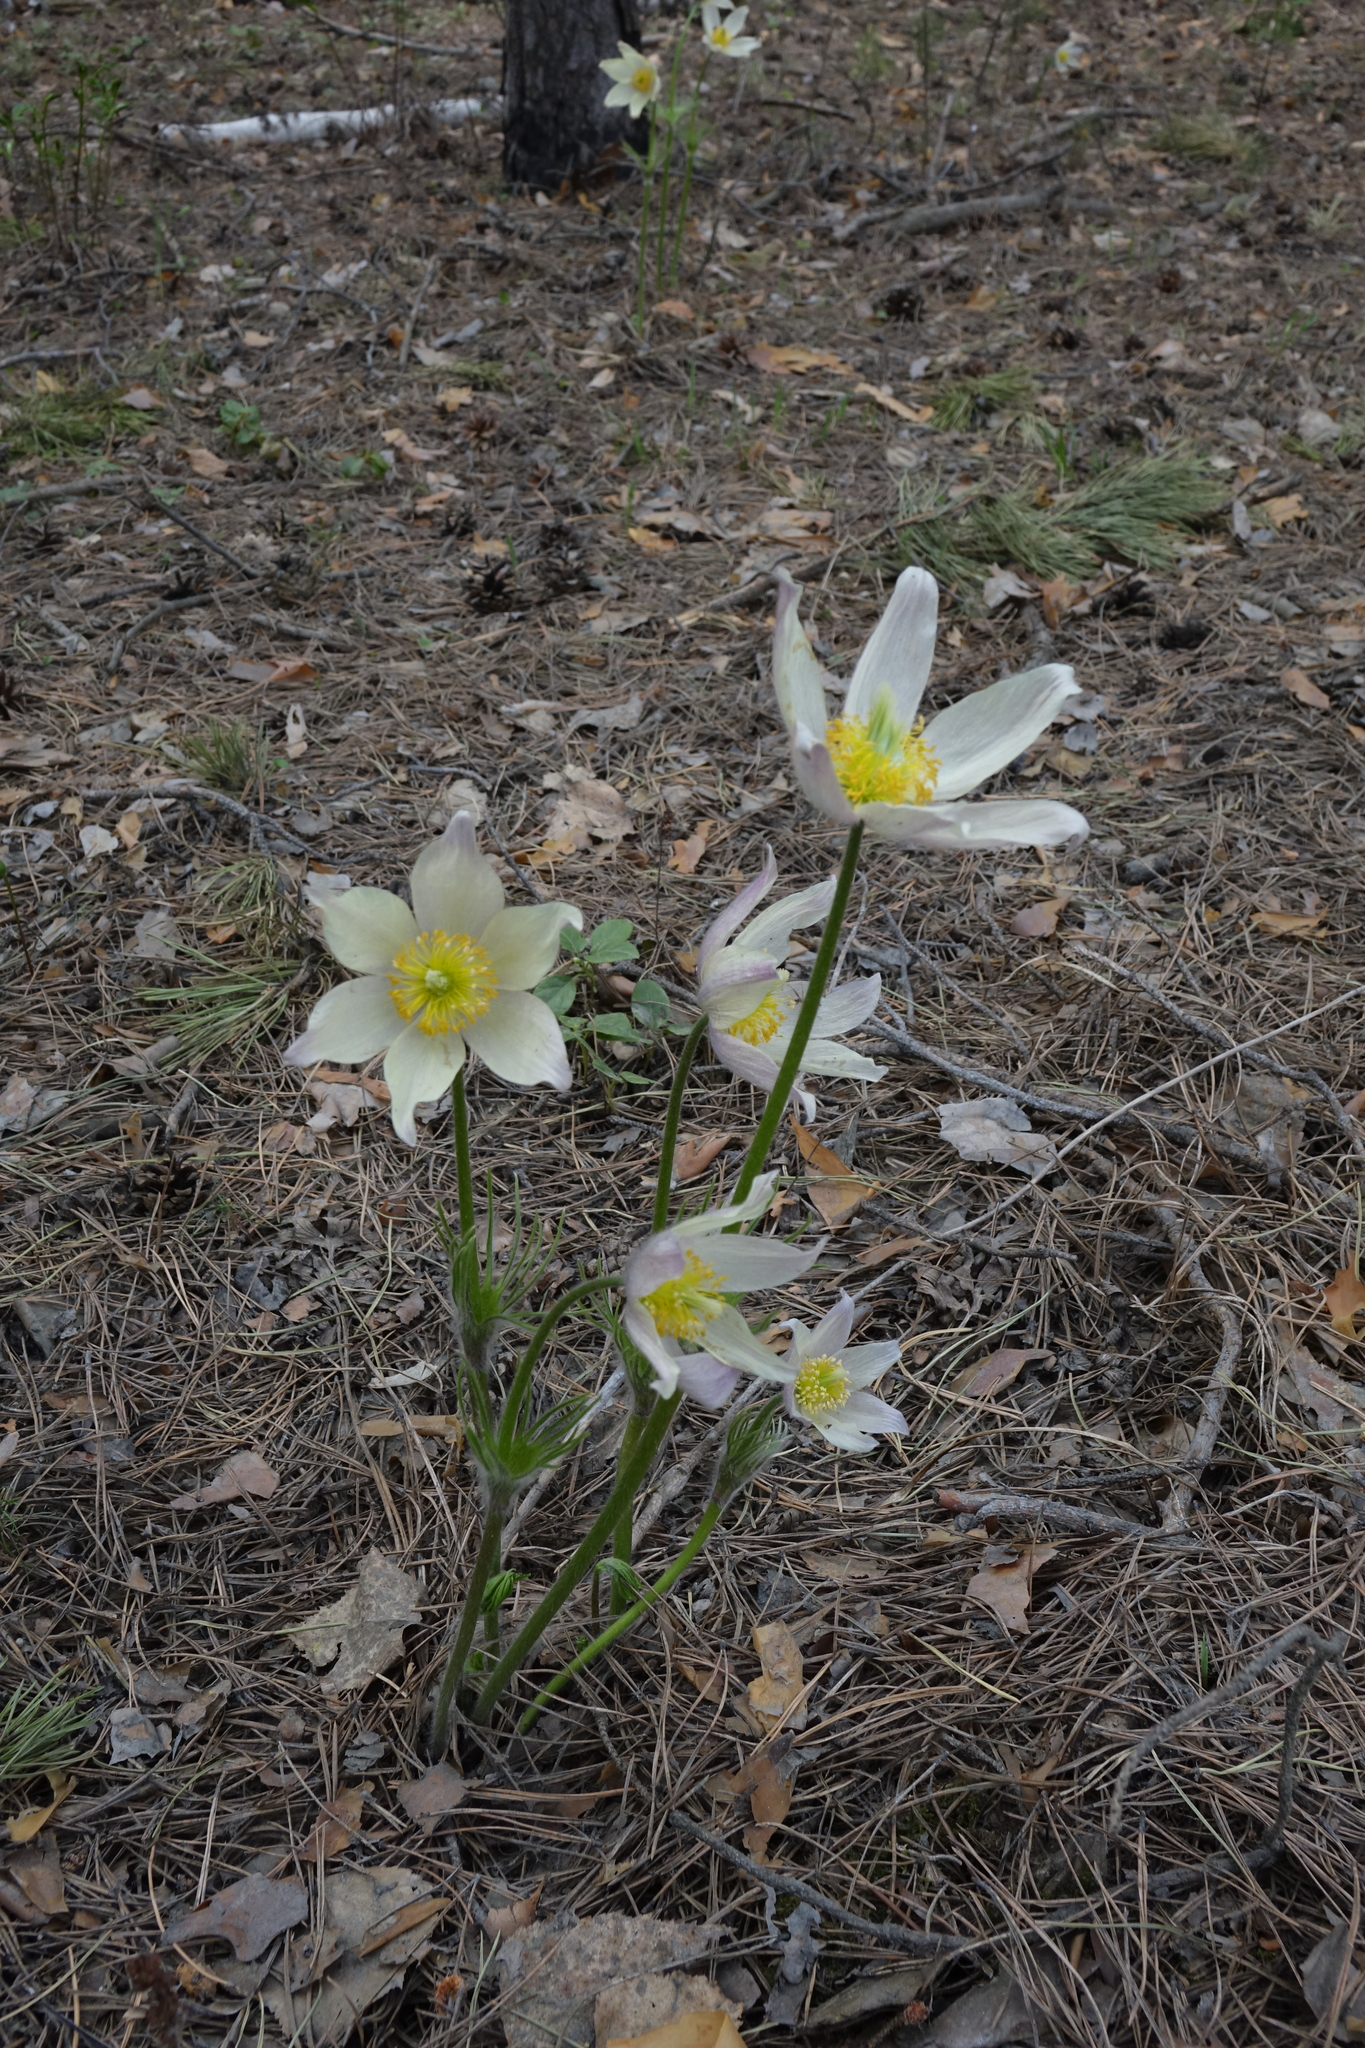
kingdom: Plantae
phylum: Tracheophyta
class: Magnoliopsida
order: Ranunculales
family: Ranunculaceae
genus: Pulsatilla
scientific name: Pulsatilla patens
